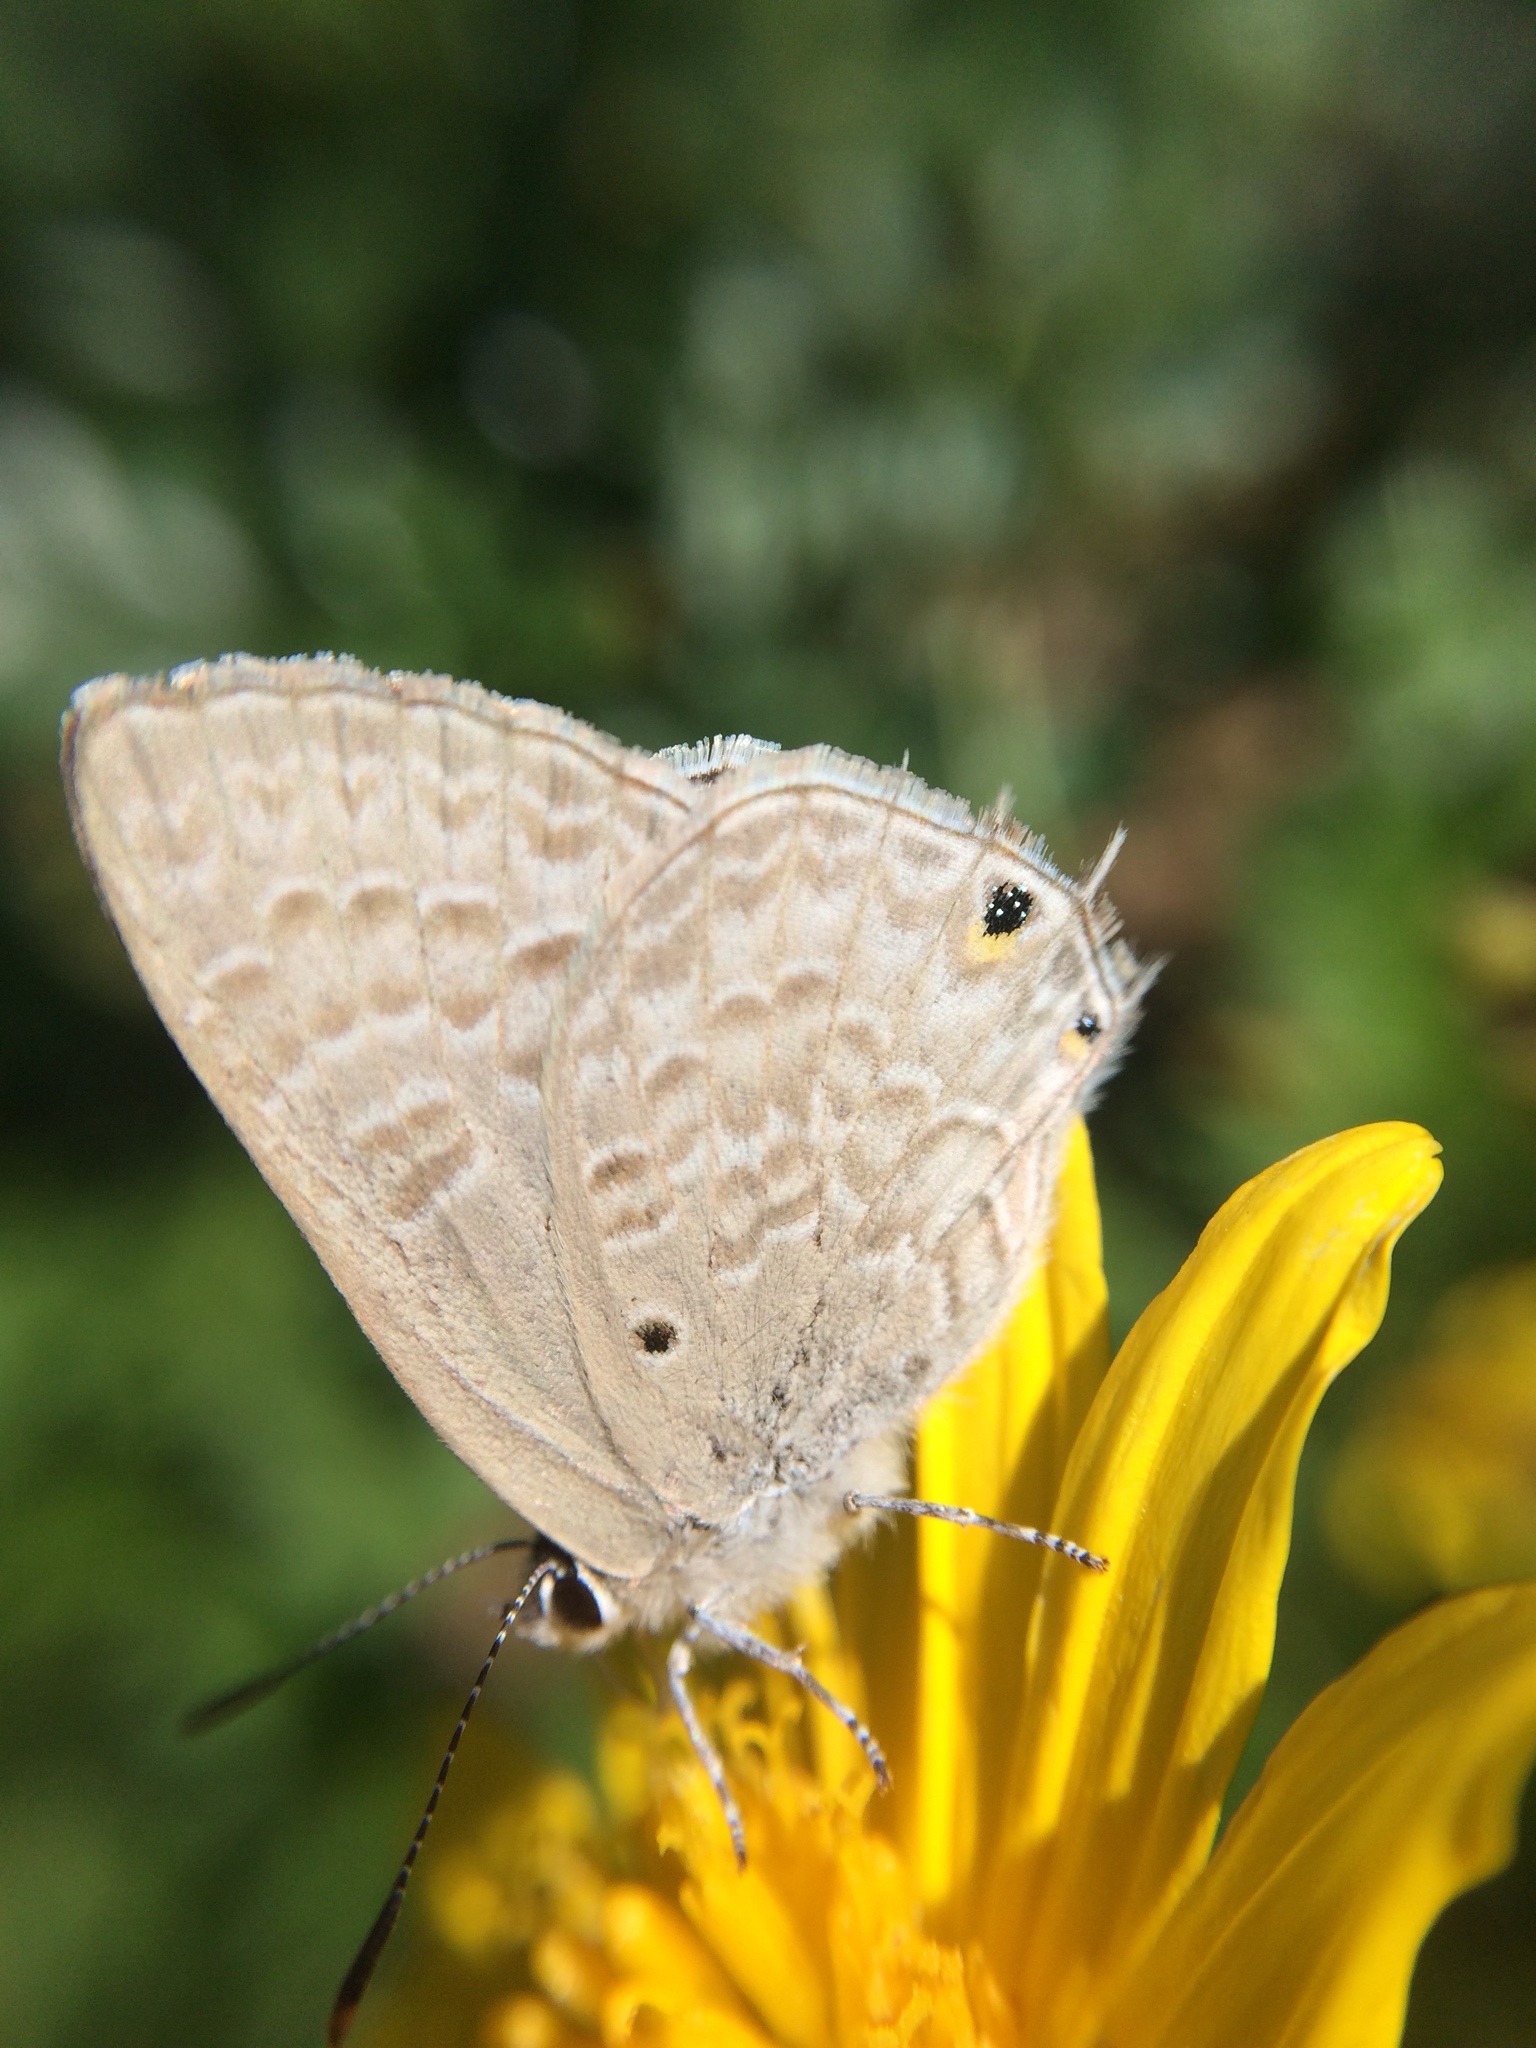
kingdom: Animalia
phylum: Arthropoda
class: Insecta
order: Lepidoptera
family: Lycaenidae
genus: Anthene
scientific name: Anthene livida
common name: Pale hairtail
